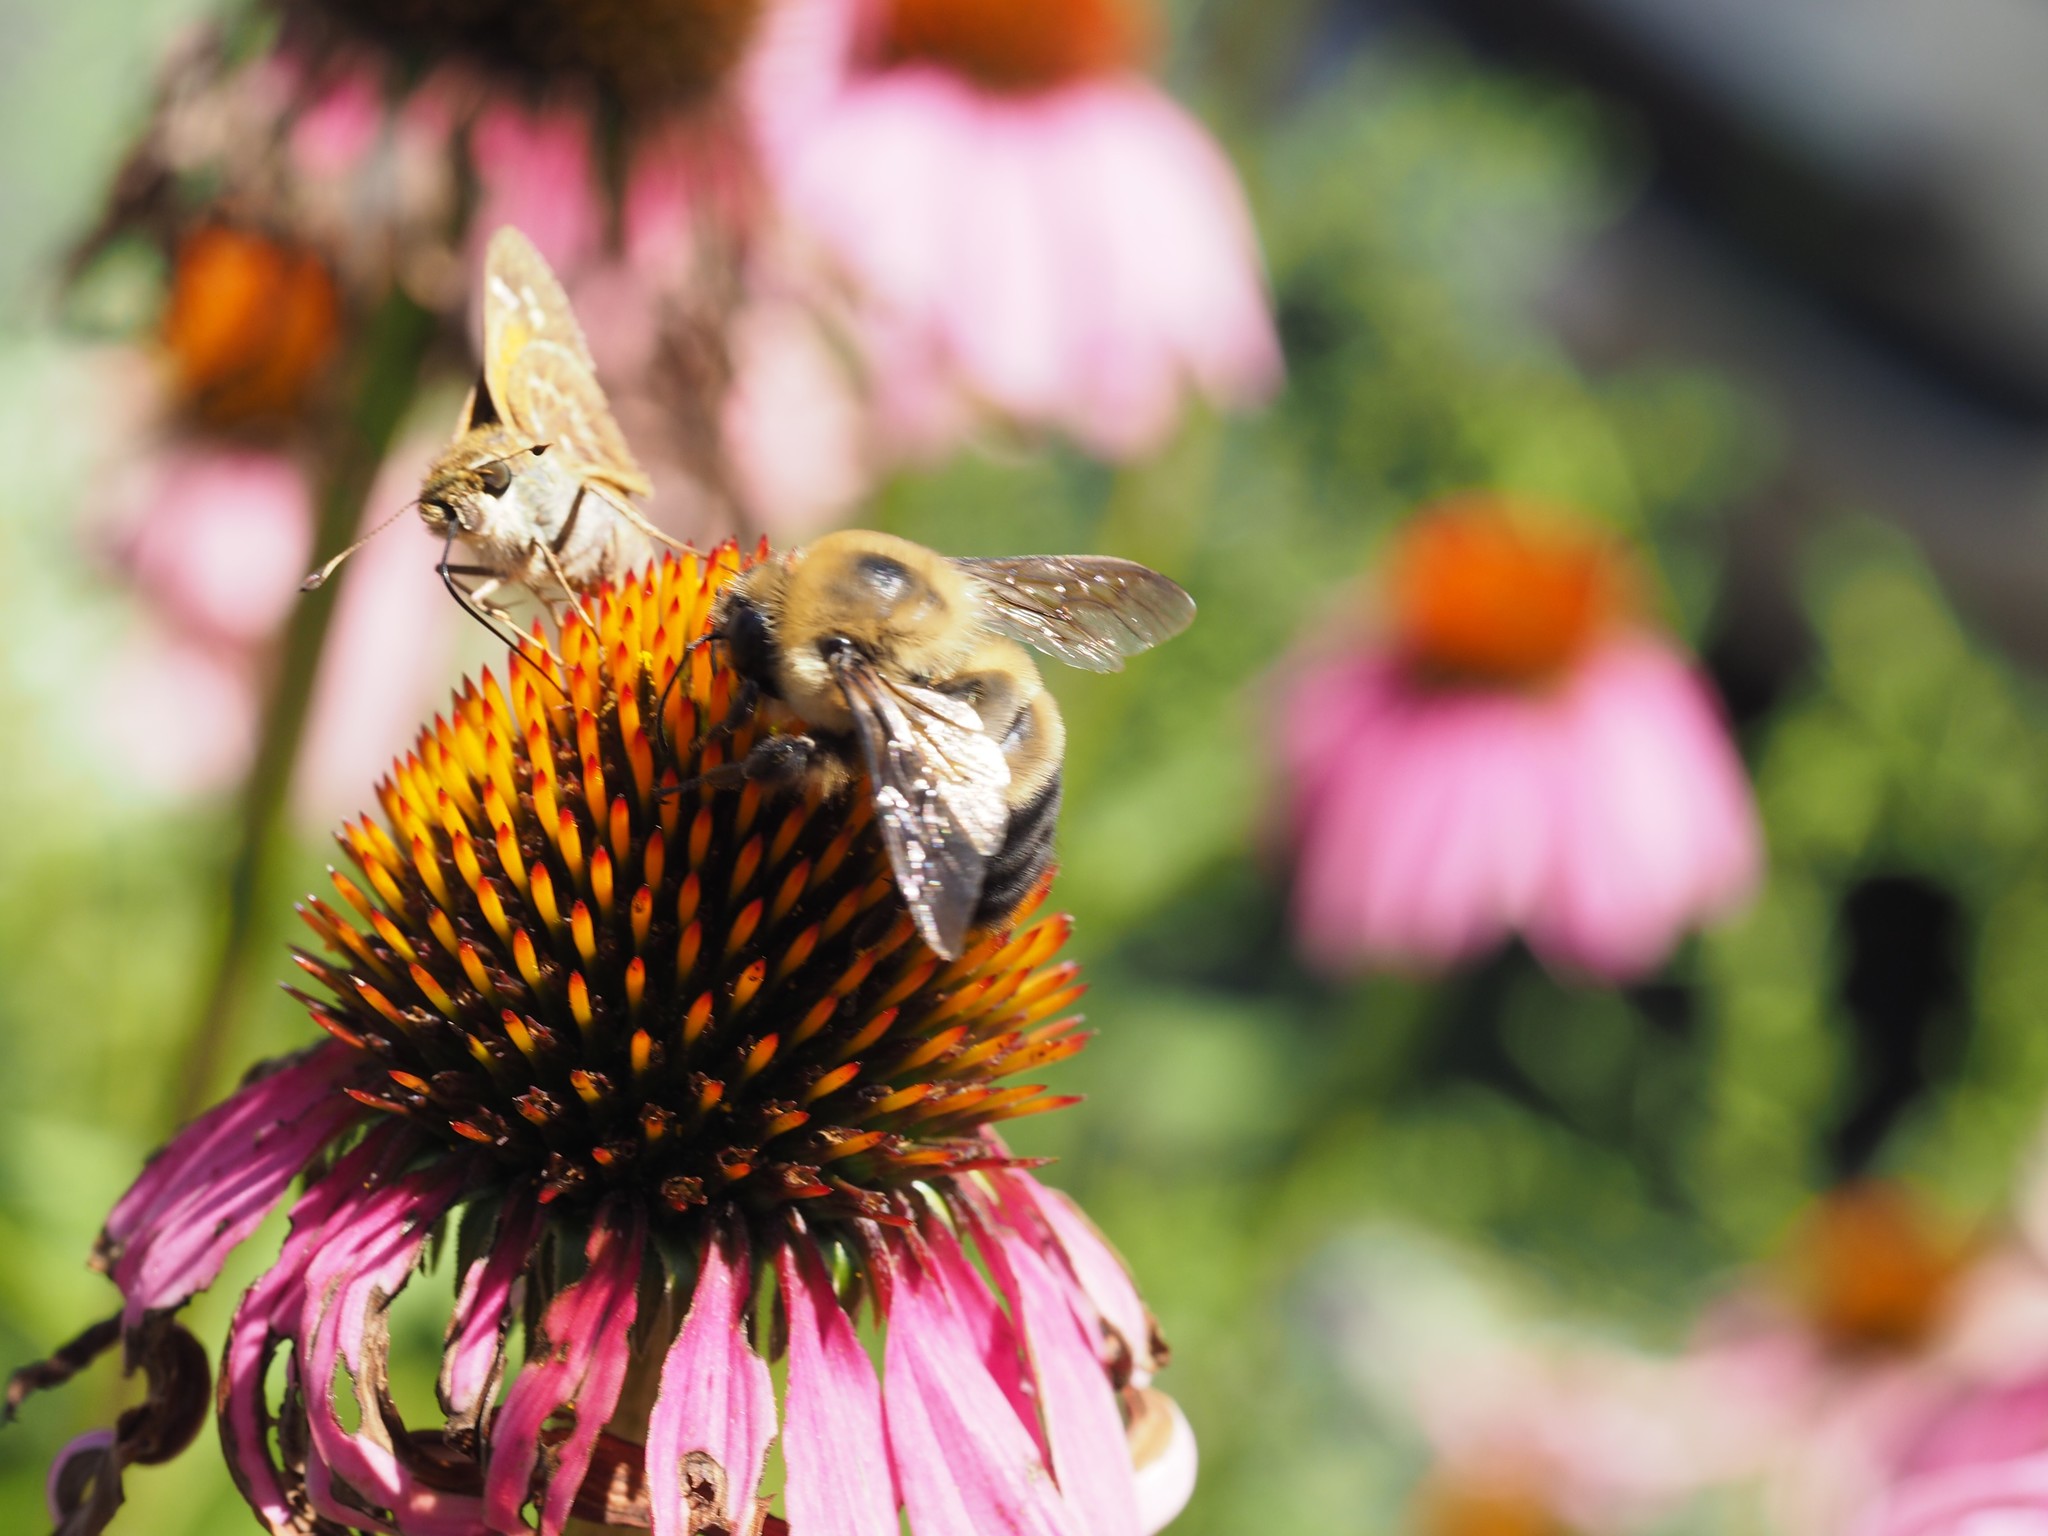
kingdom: Animalia
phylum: Arthropoda
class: Insecta
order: Hymenoptera
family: Apidae
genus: Bombus
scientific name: Bombus griseocollis
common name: Brown-belted bumble bee
